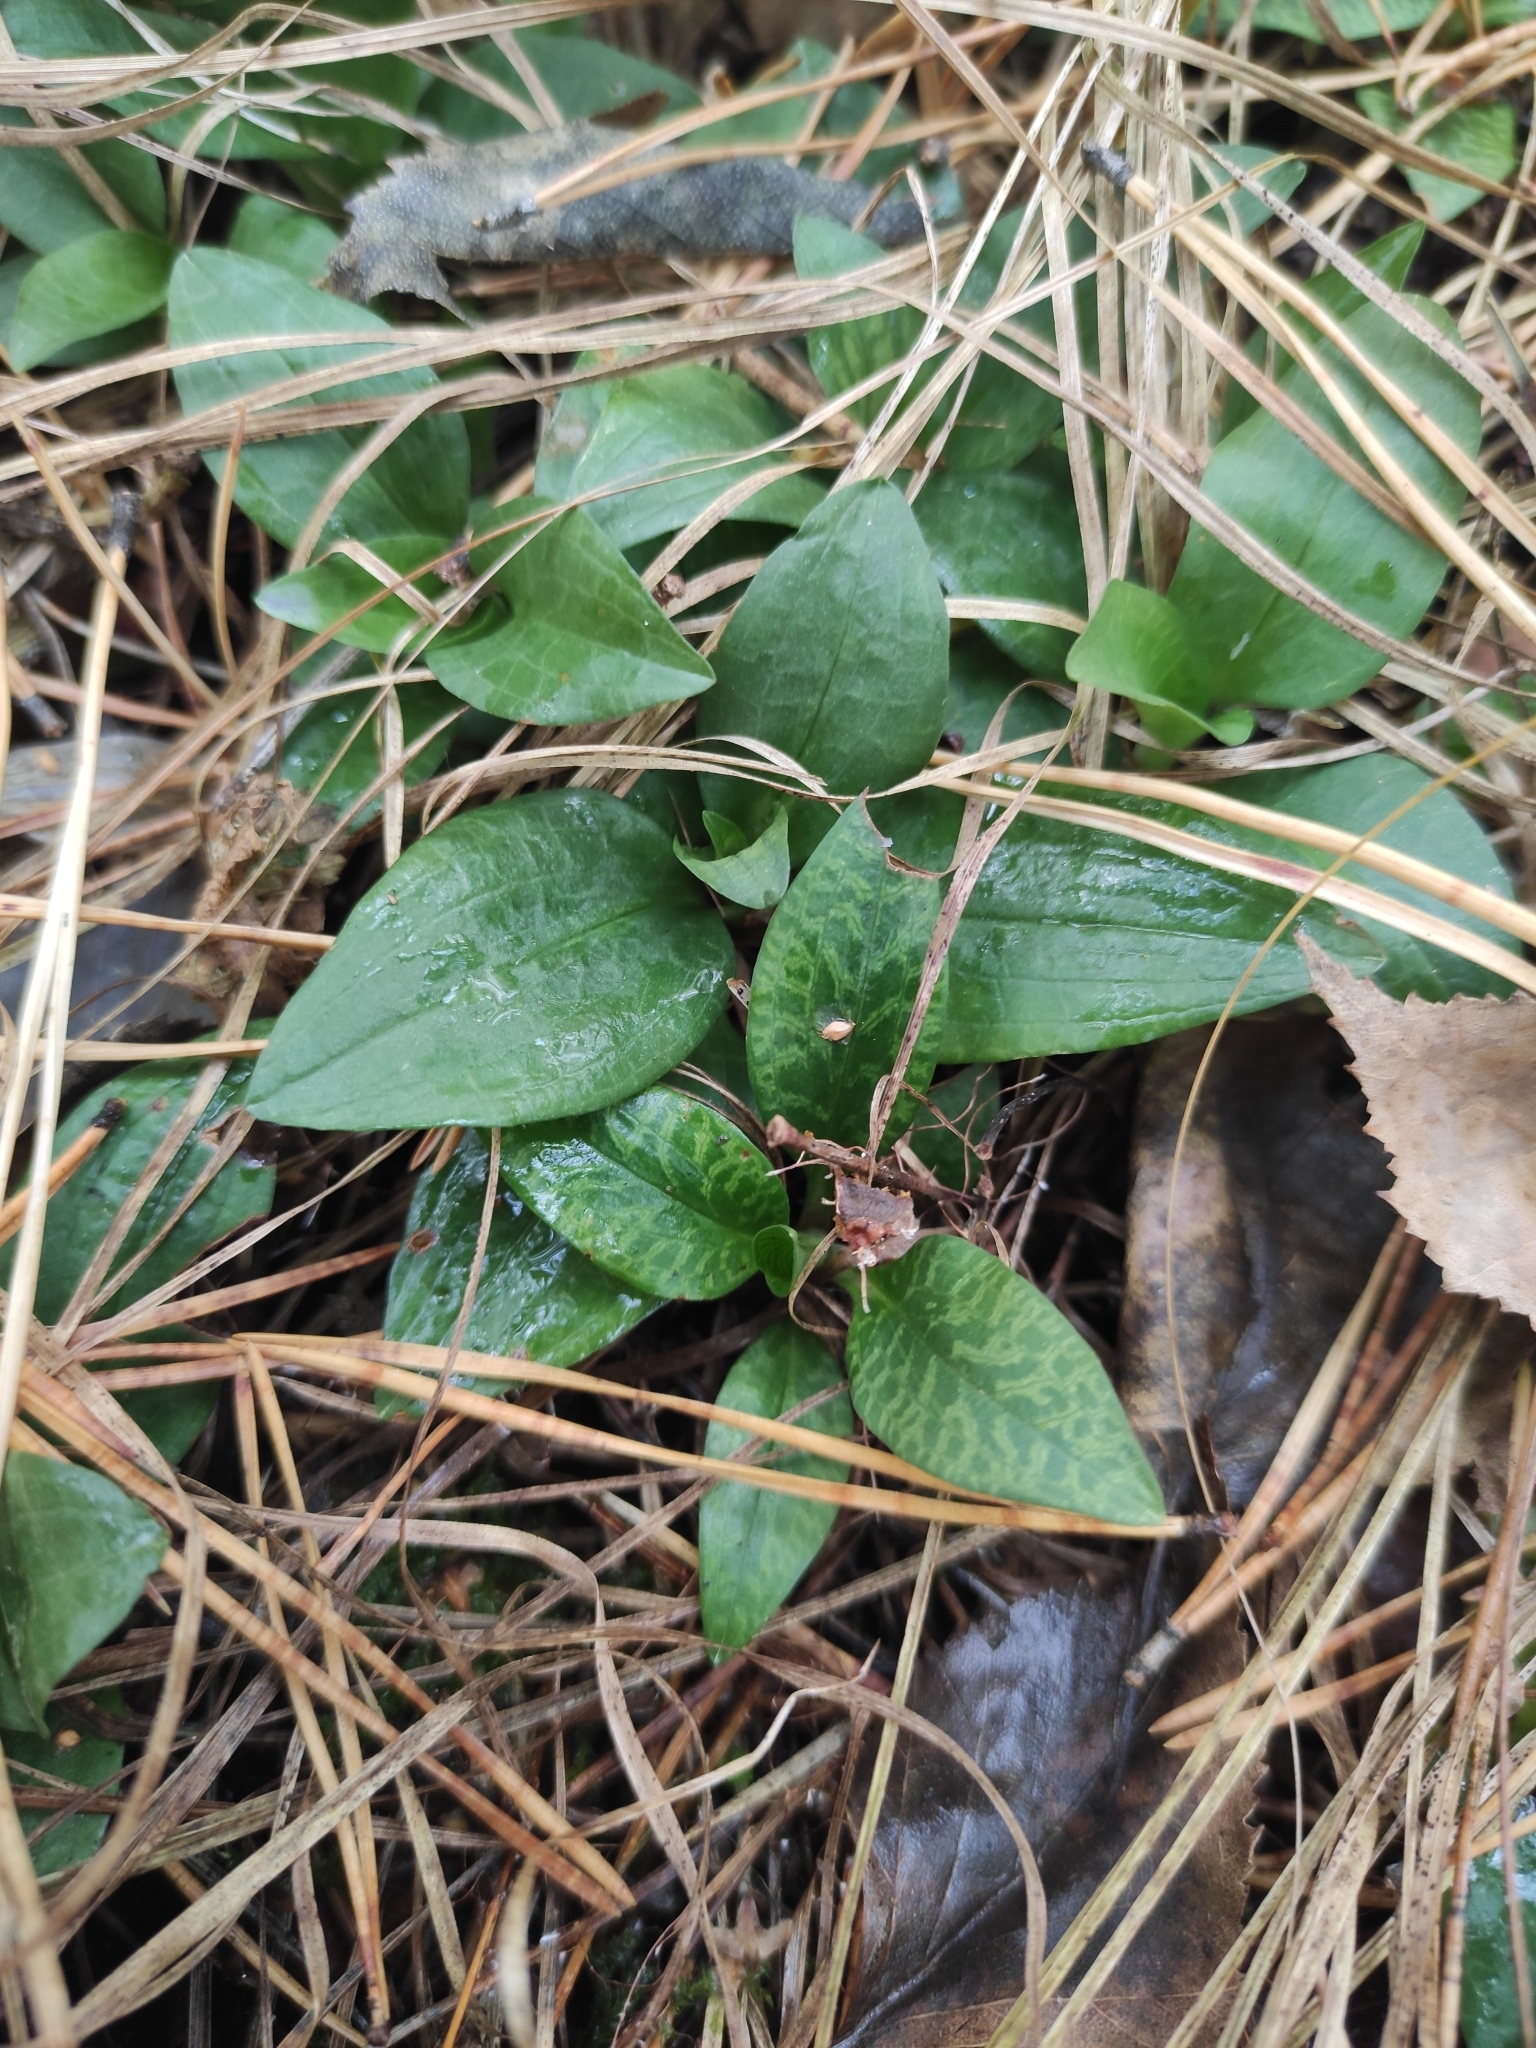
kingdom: Plantae
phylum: Tracheophyta
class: Liliopsida
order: Asparagales
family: Orchidaceae
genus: Goodyera
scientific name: Goodyera repens
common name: Creeping lady's-tresses
